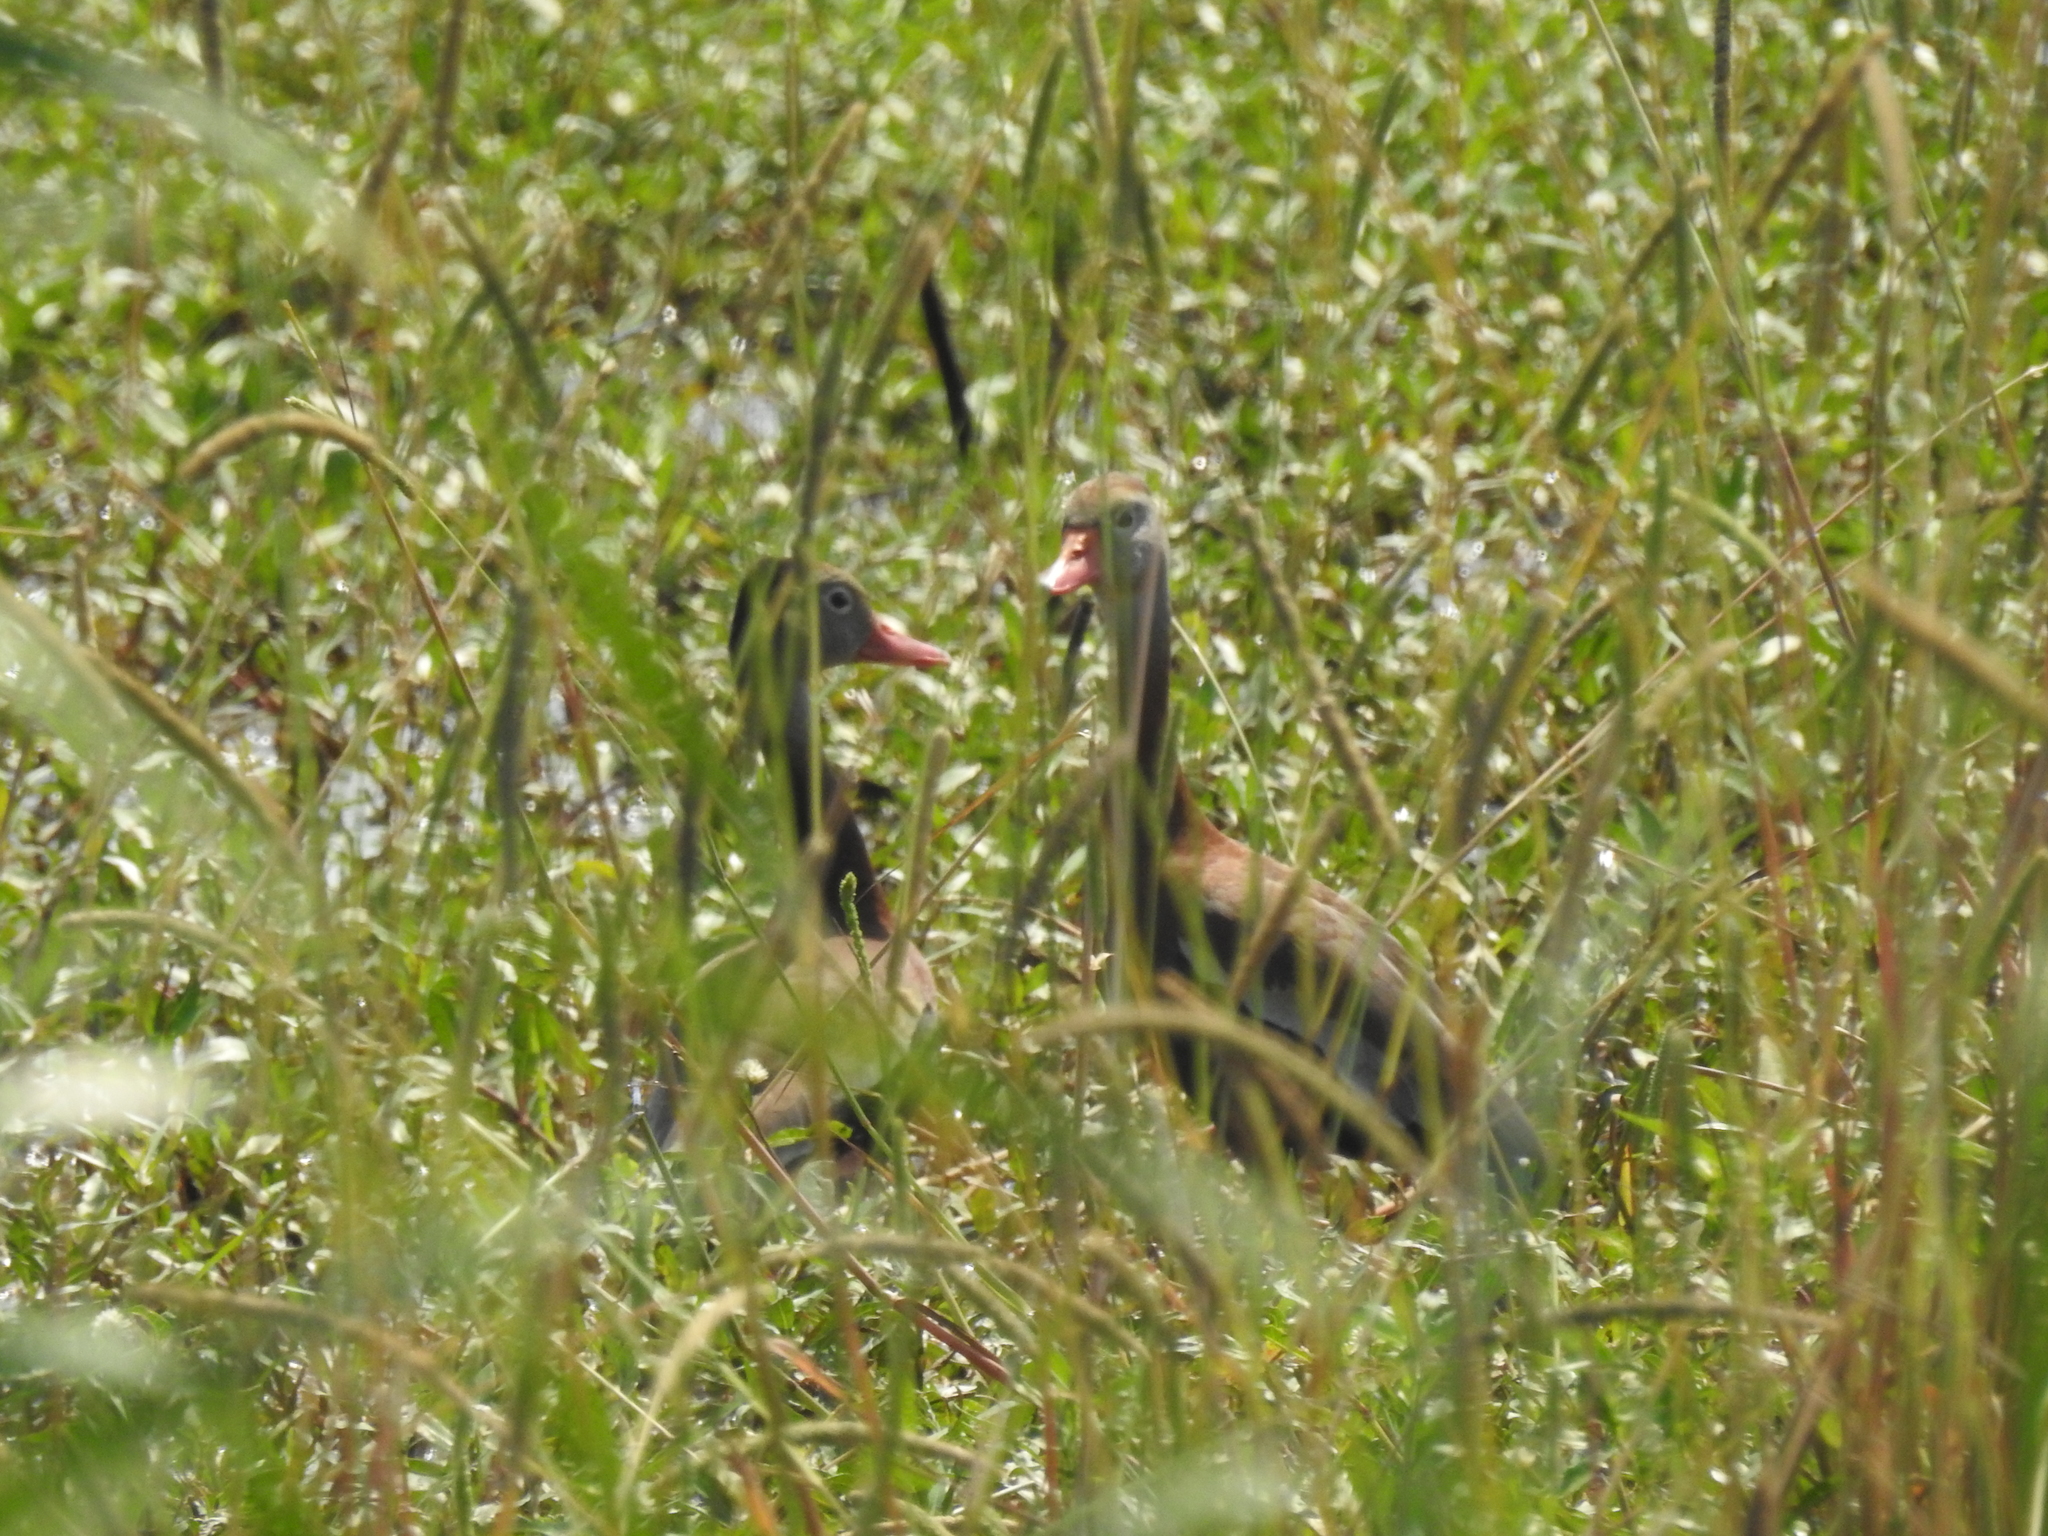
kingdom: Animalia
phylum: Chordata
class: Aves
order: Anseriformes
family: Anatidae
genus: Dendrocygna
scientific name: Dendrocygna autumnalis
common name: Black-bellied whistling duck
